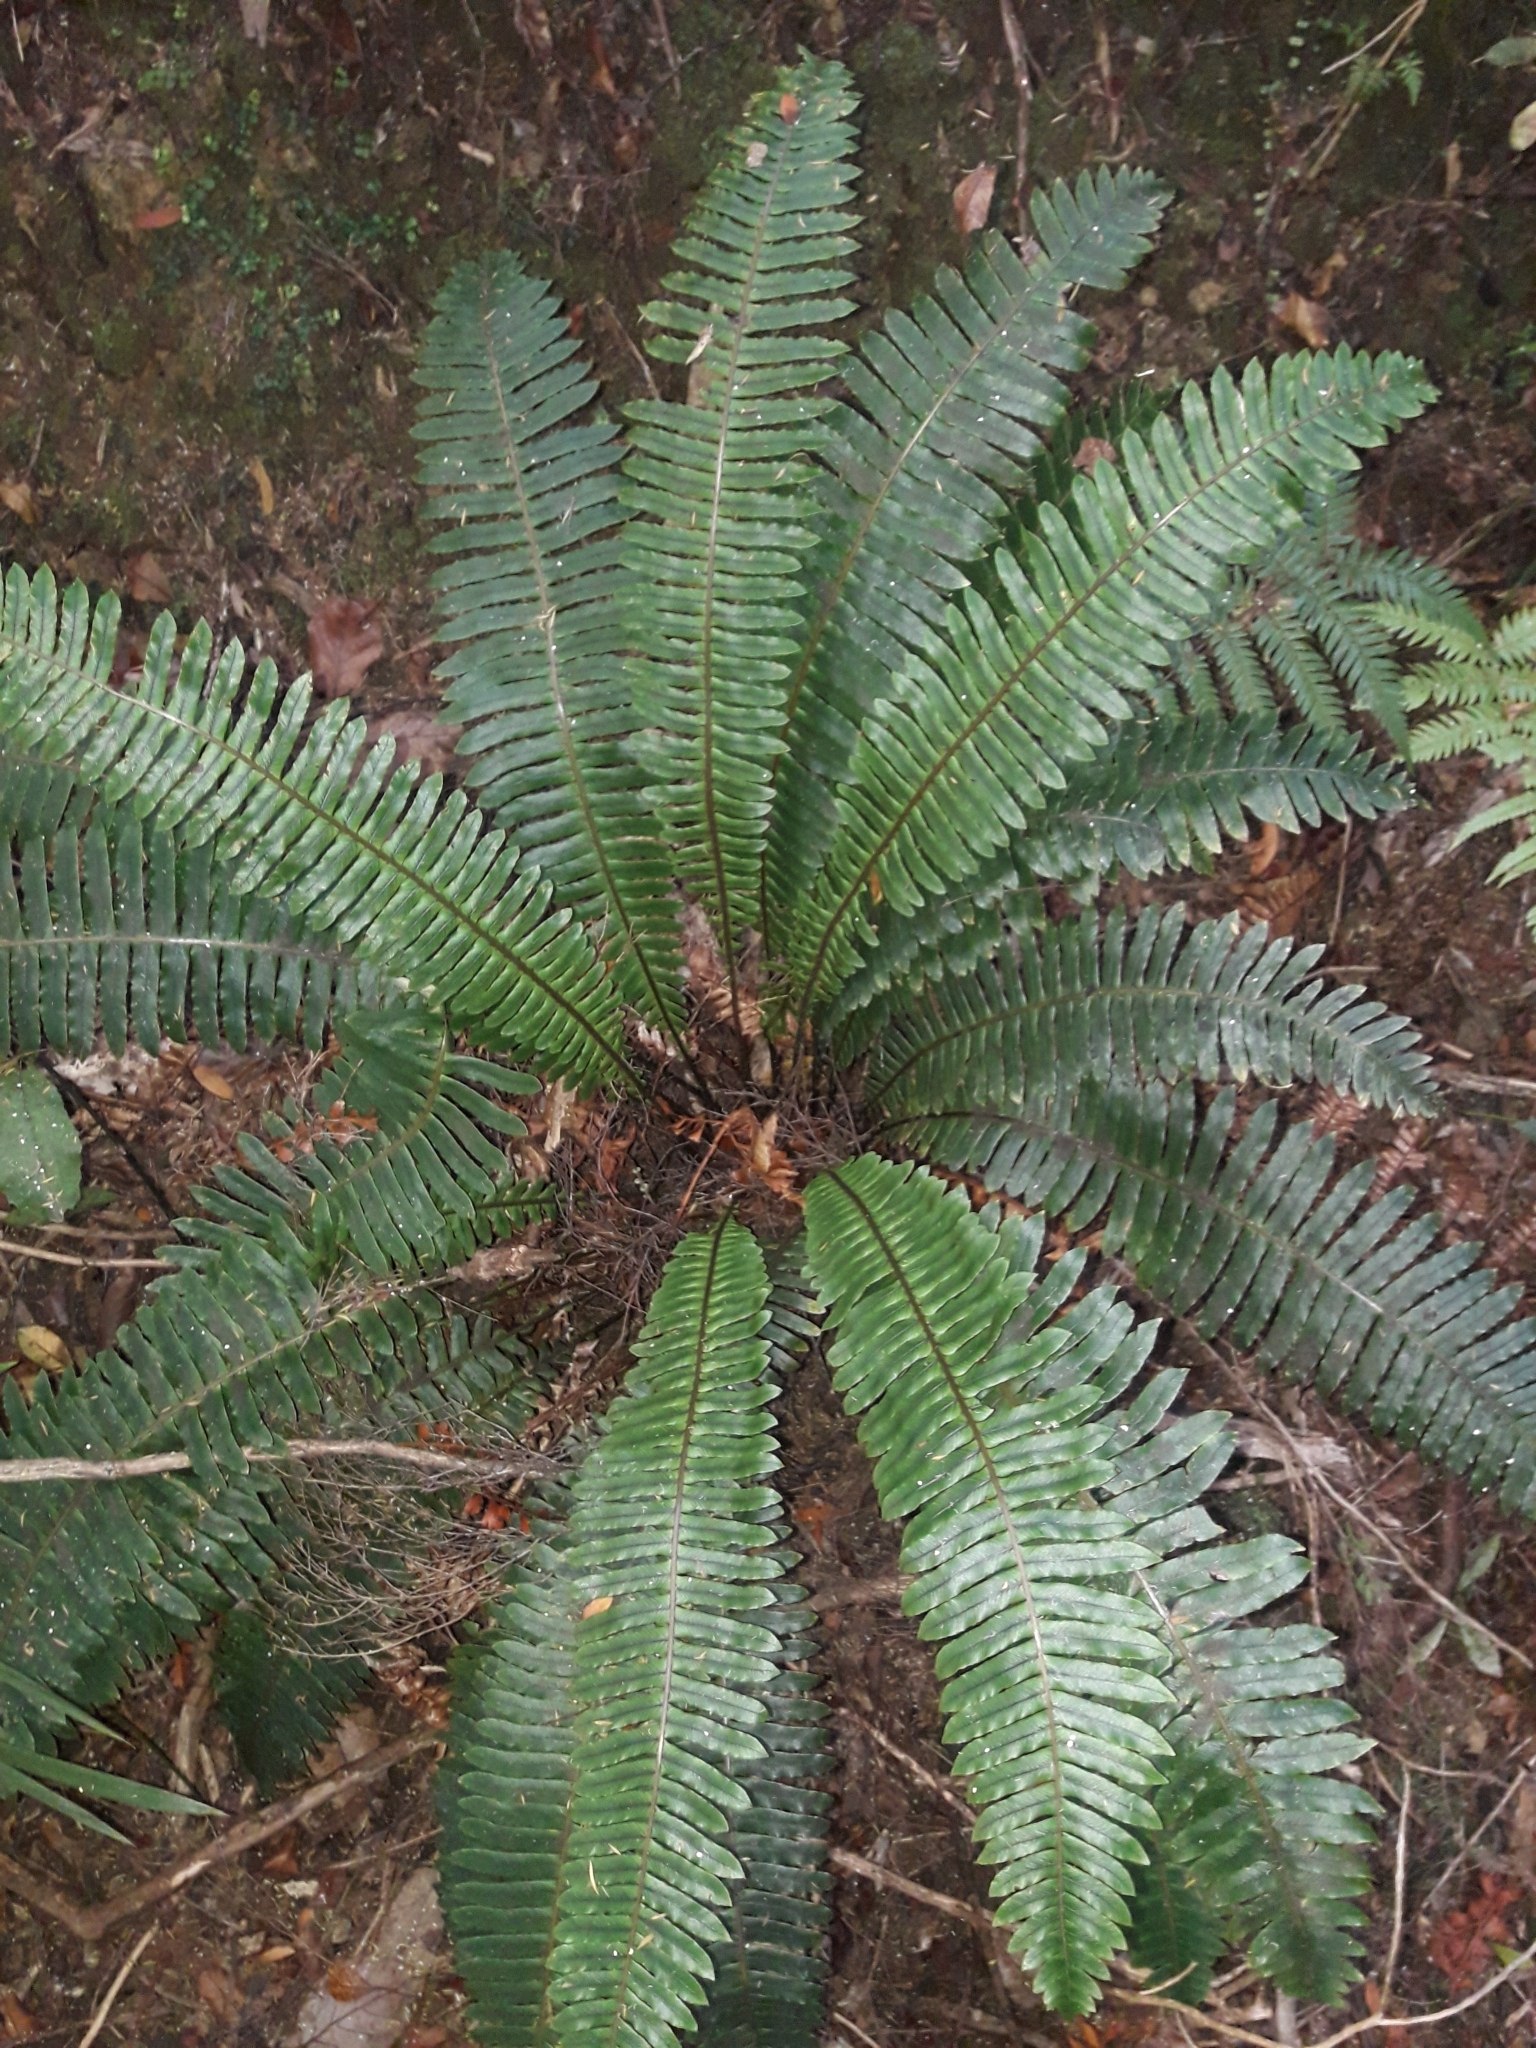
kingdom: Plantae
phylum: Tracheophyta
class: Polypodiopsida
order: Polypodiales
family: Blechnaceae
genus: Lomaria
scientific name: Lomaria discolor
